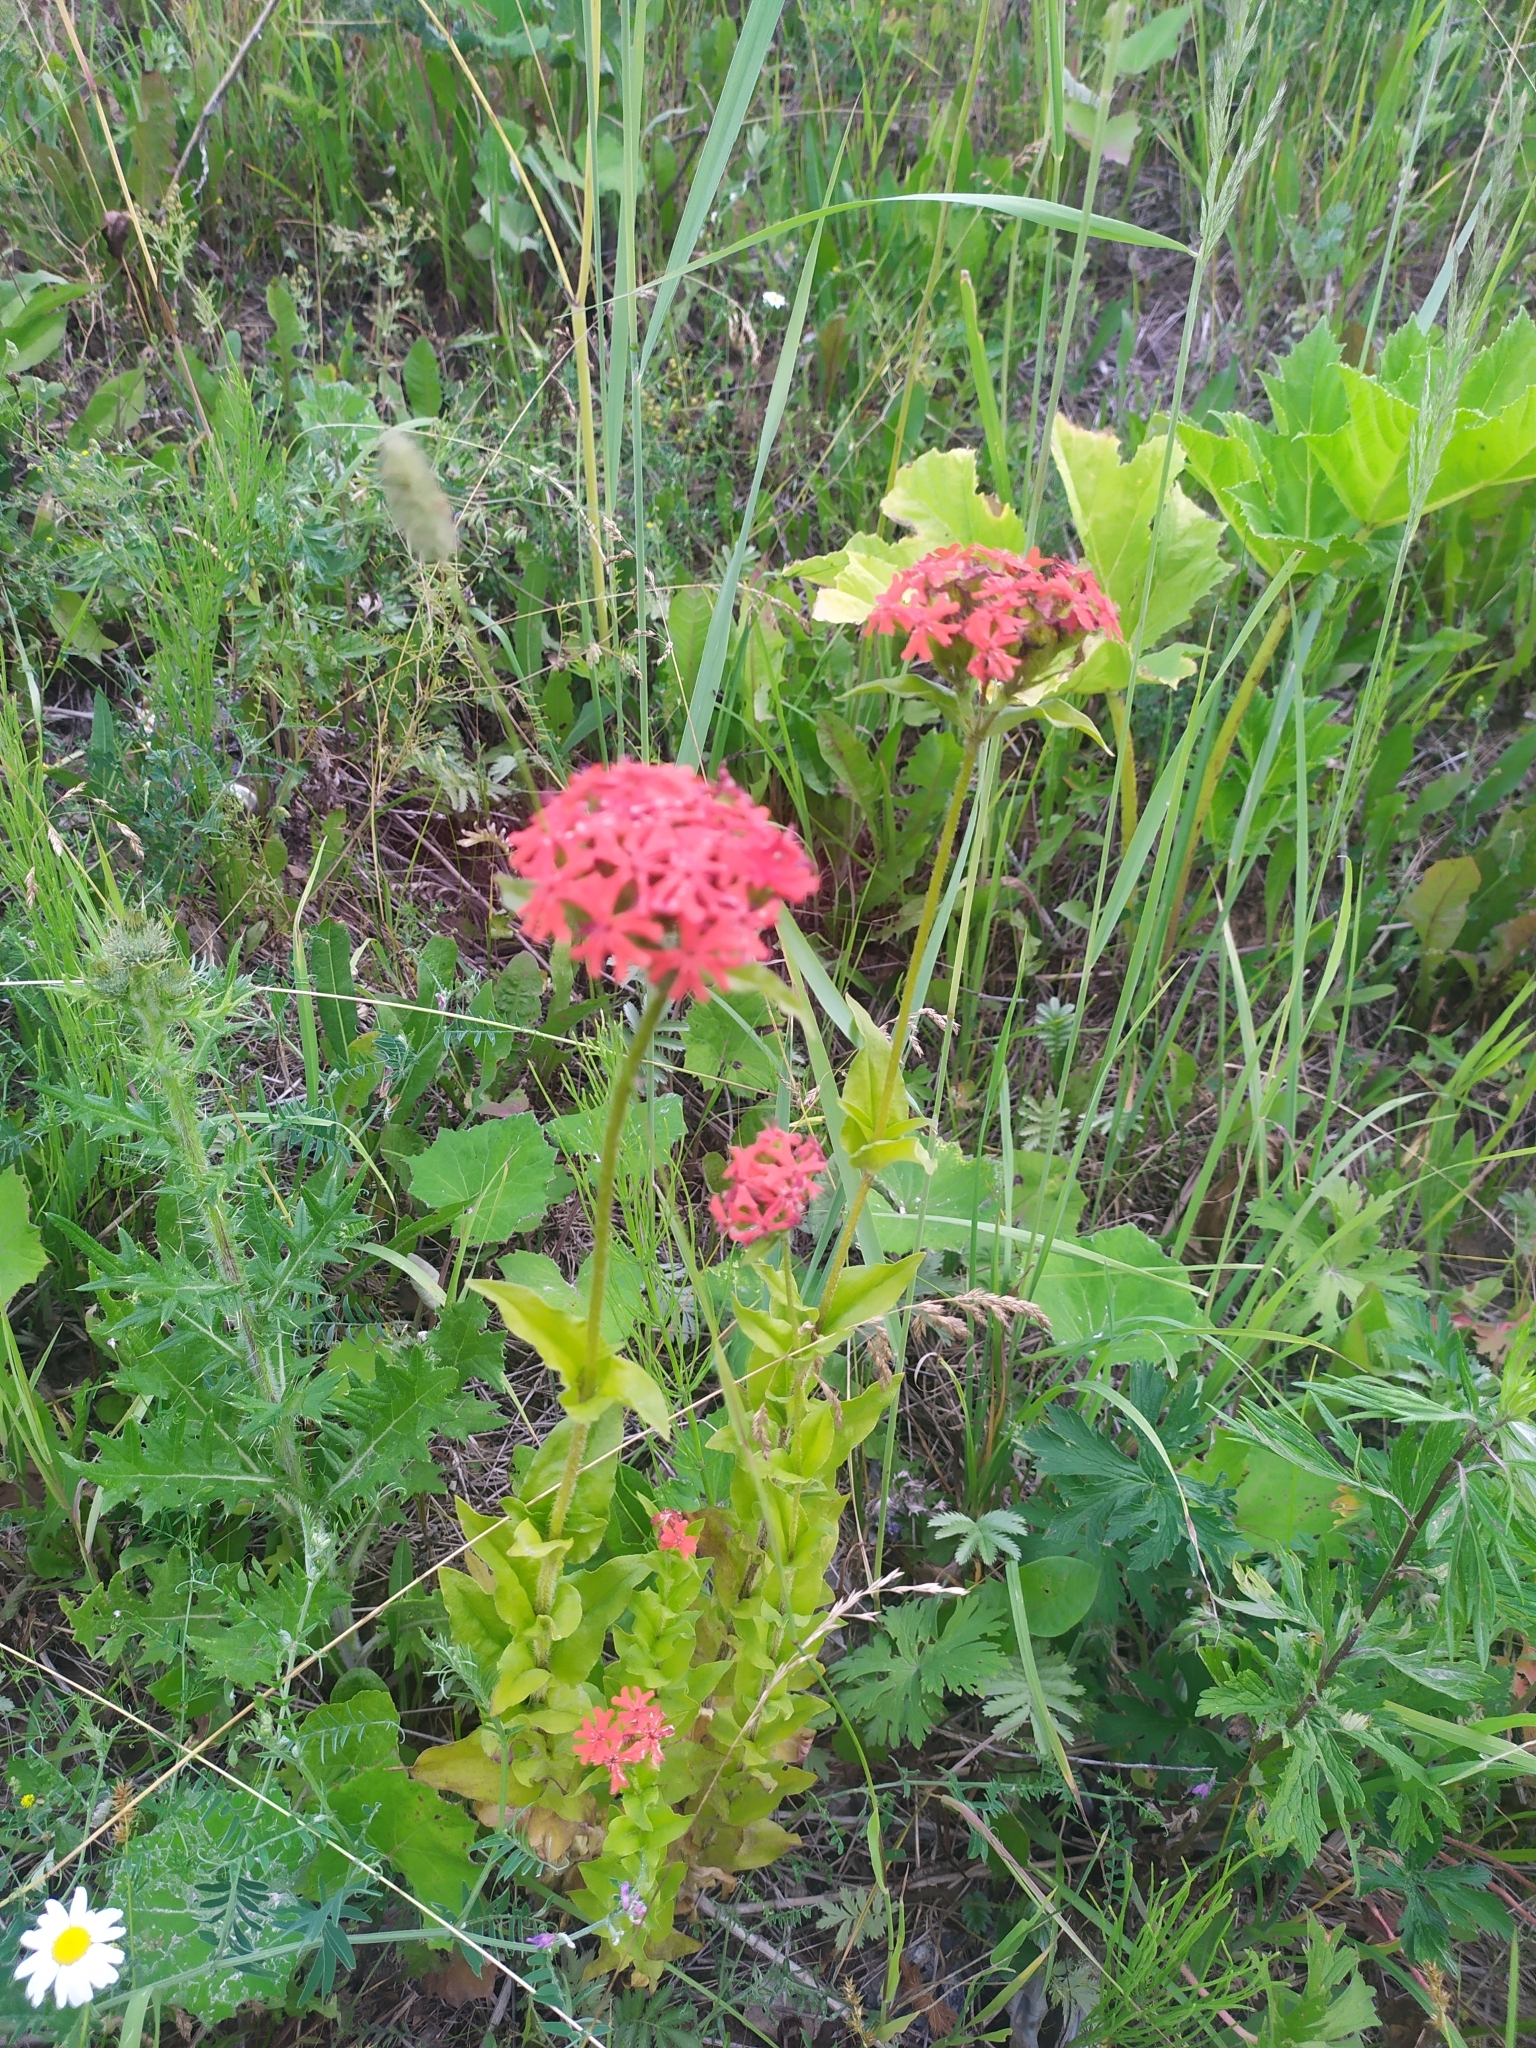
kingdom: Plantae
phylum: Tracheophyta
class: Magnoliopsida
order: Caryophyllales
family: Caryophyllaceae
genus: Silene
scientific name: Silene chalcedonica
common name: Maltese-cross
